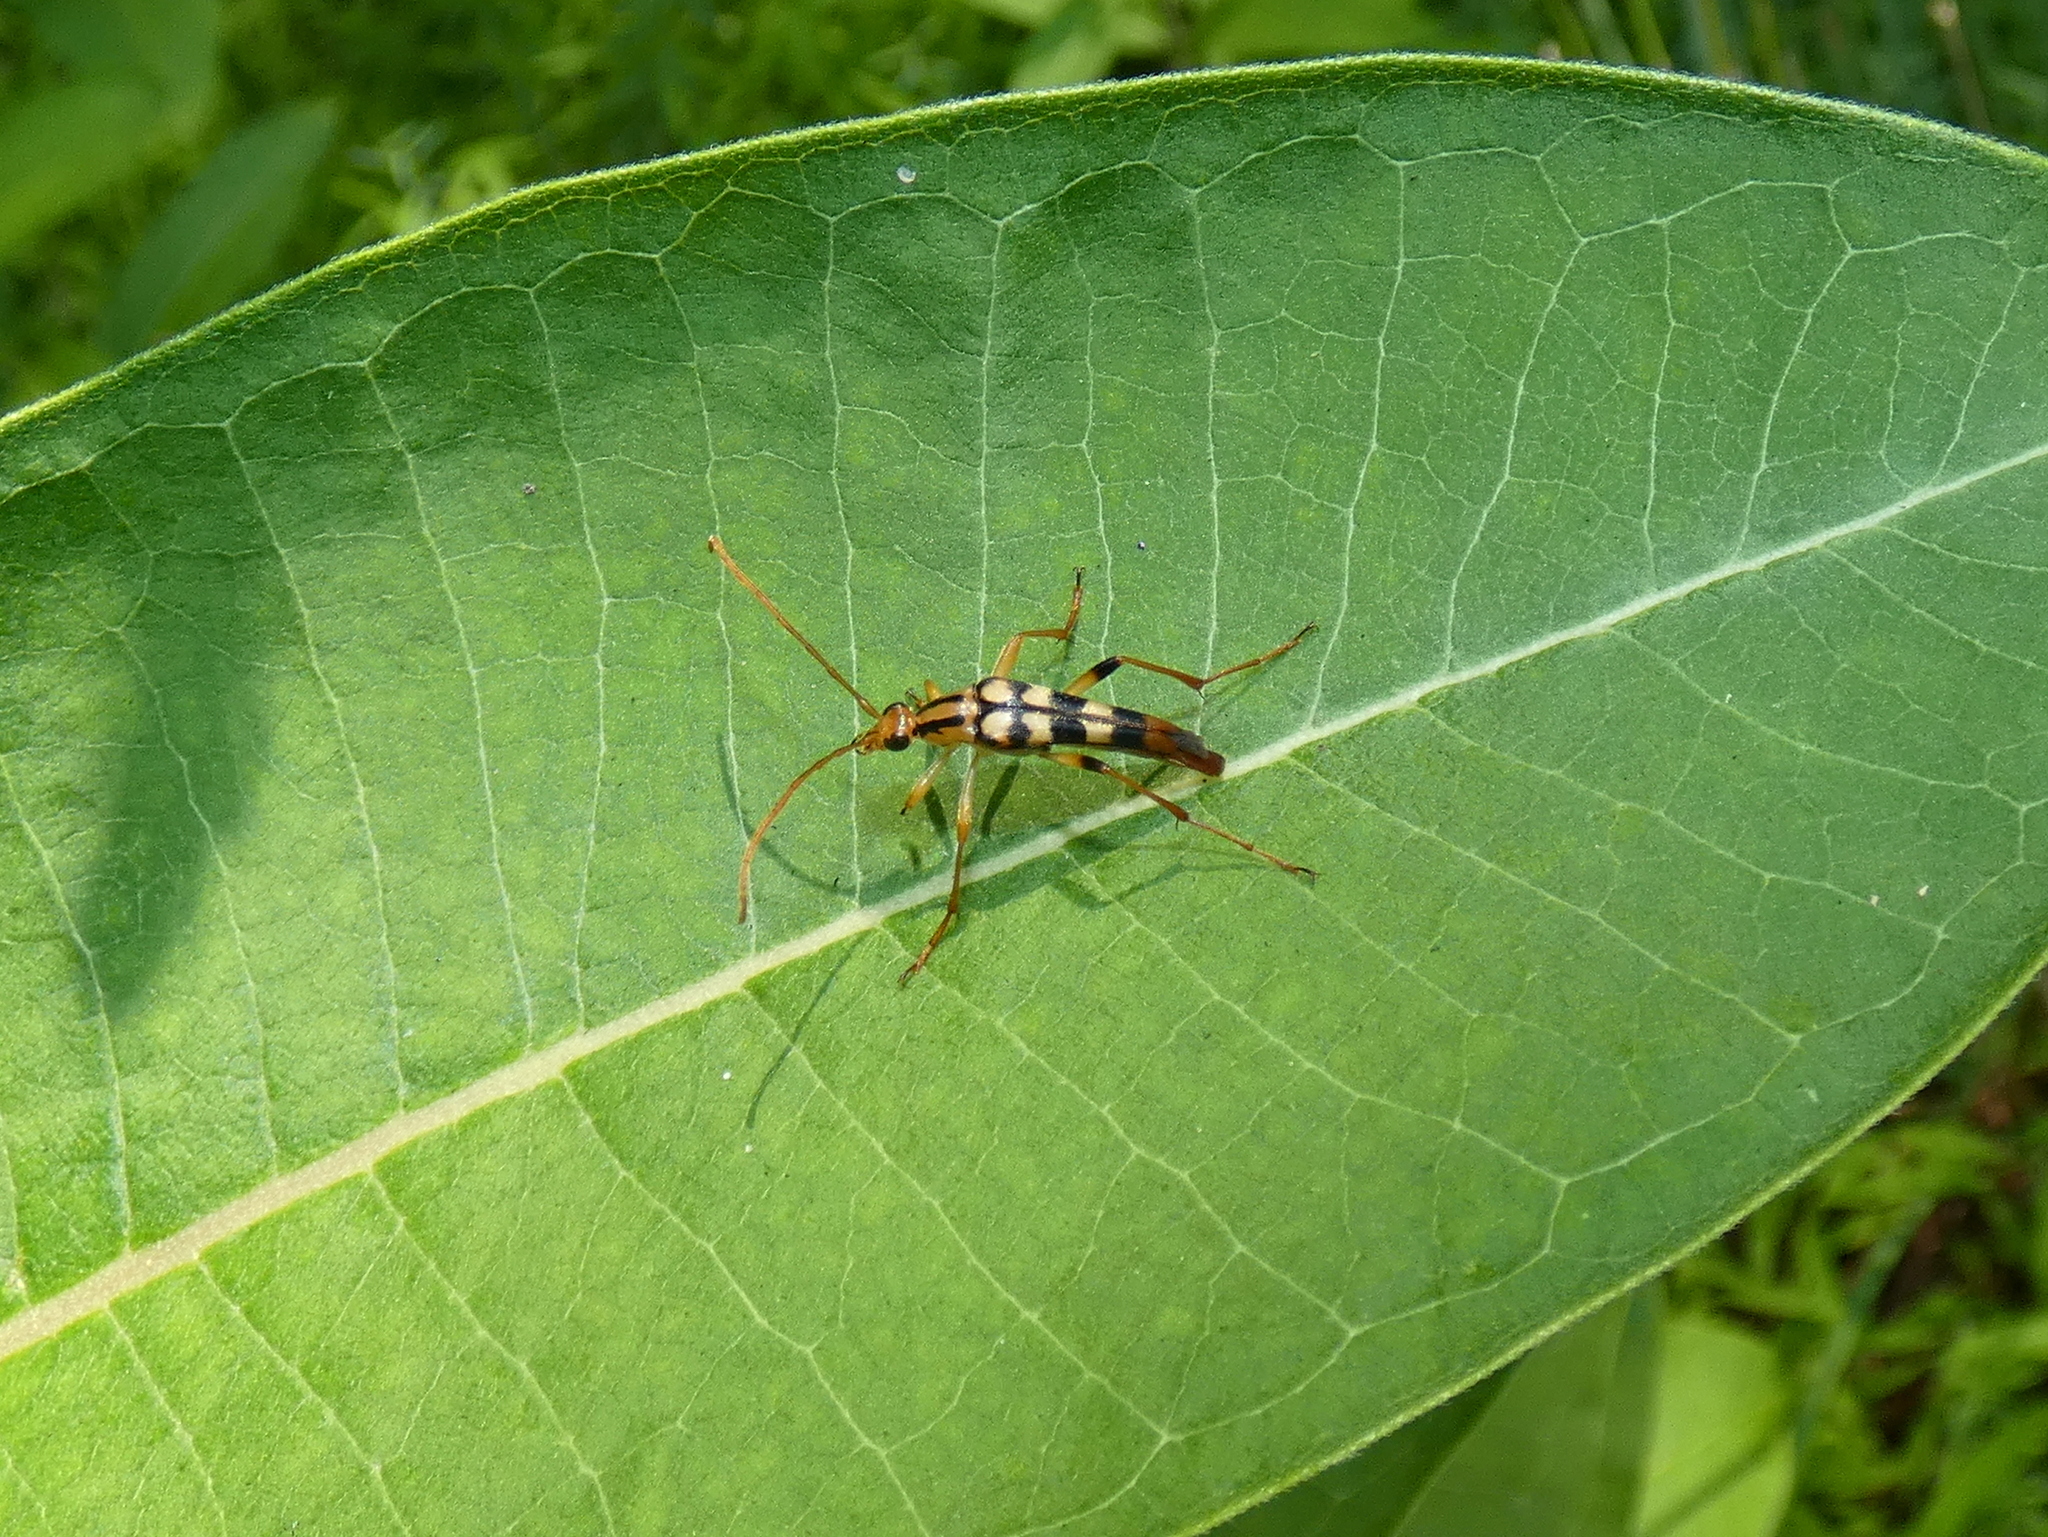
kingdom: Animalia
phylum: Arthropoda
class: Insecta
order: Coleoptera
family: Cerambycidae
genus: Strangalia
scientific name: Strangalia luteicornis
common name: Yellow-horned flower longhorn beetle
